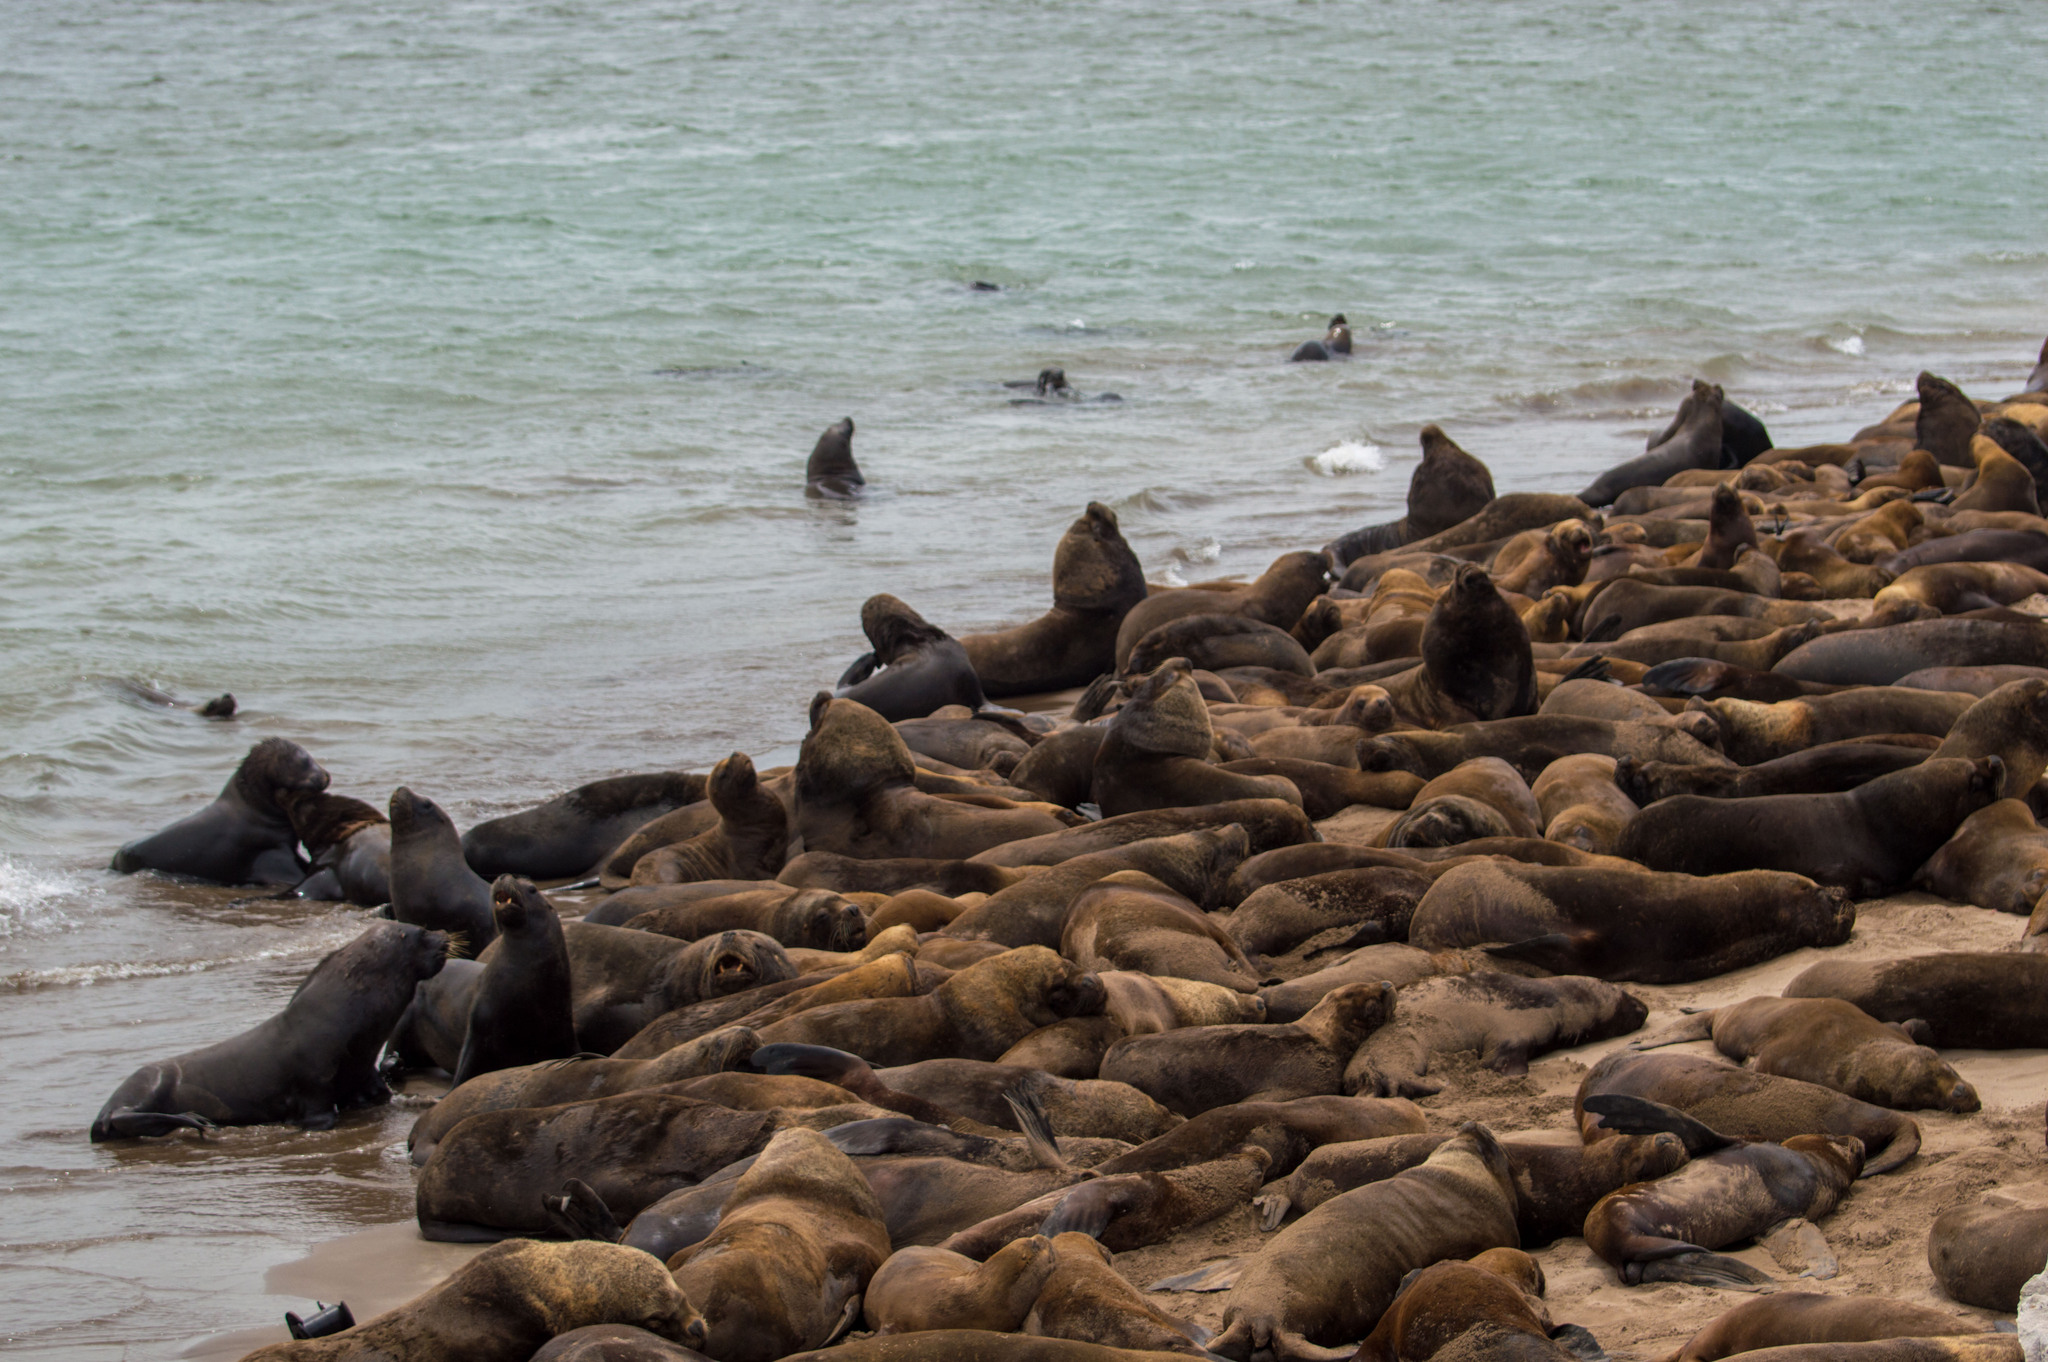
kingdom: Animalia
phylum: Chordata
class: Mammalia
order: Carnivora
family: Otariidae
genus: Otaria
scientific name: Otaria byronia
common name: South american sea lion
